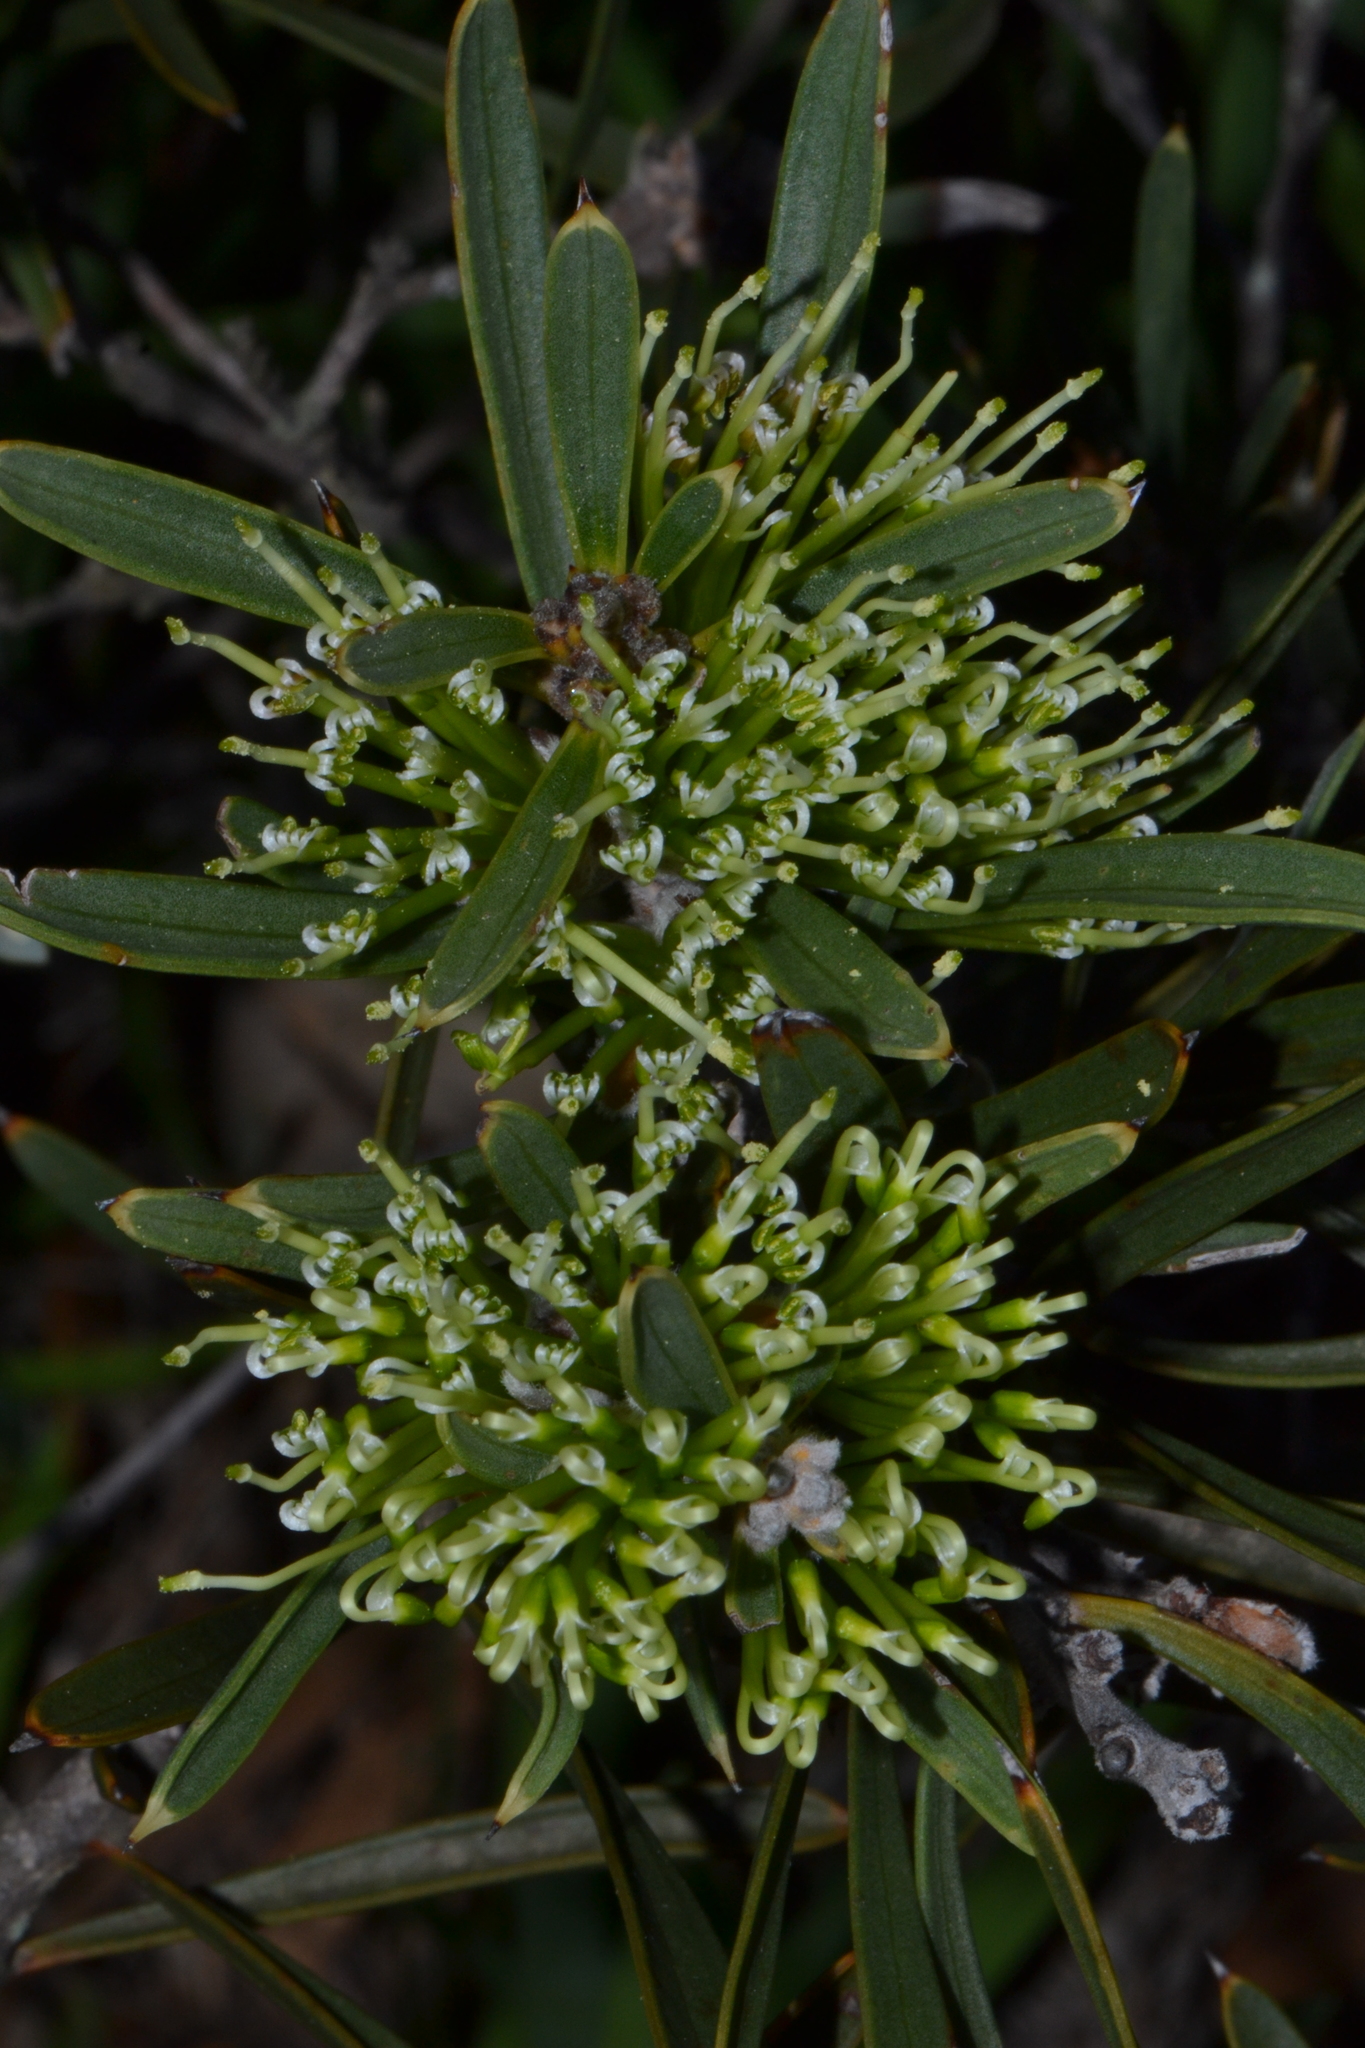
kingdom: Plantae
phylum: Tracheophyta
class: Magnoliopsida
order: Proteales
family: Proteaceae
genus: Hakea
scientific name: Hakea corymbosa
